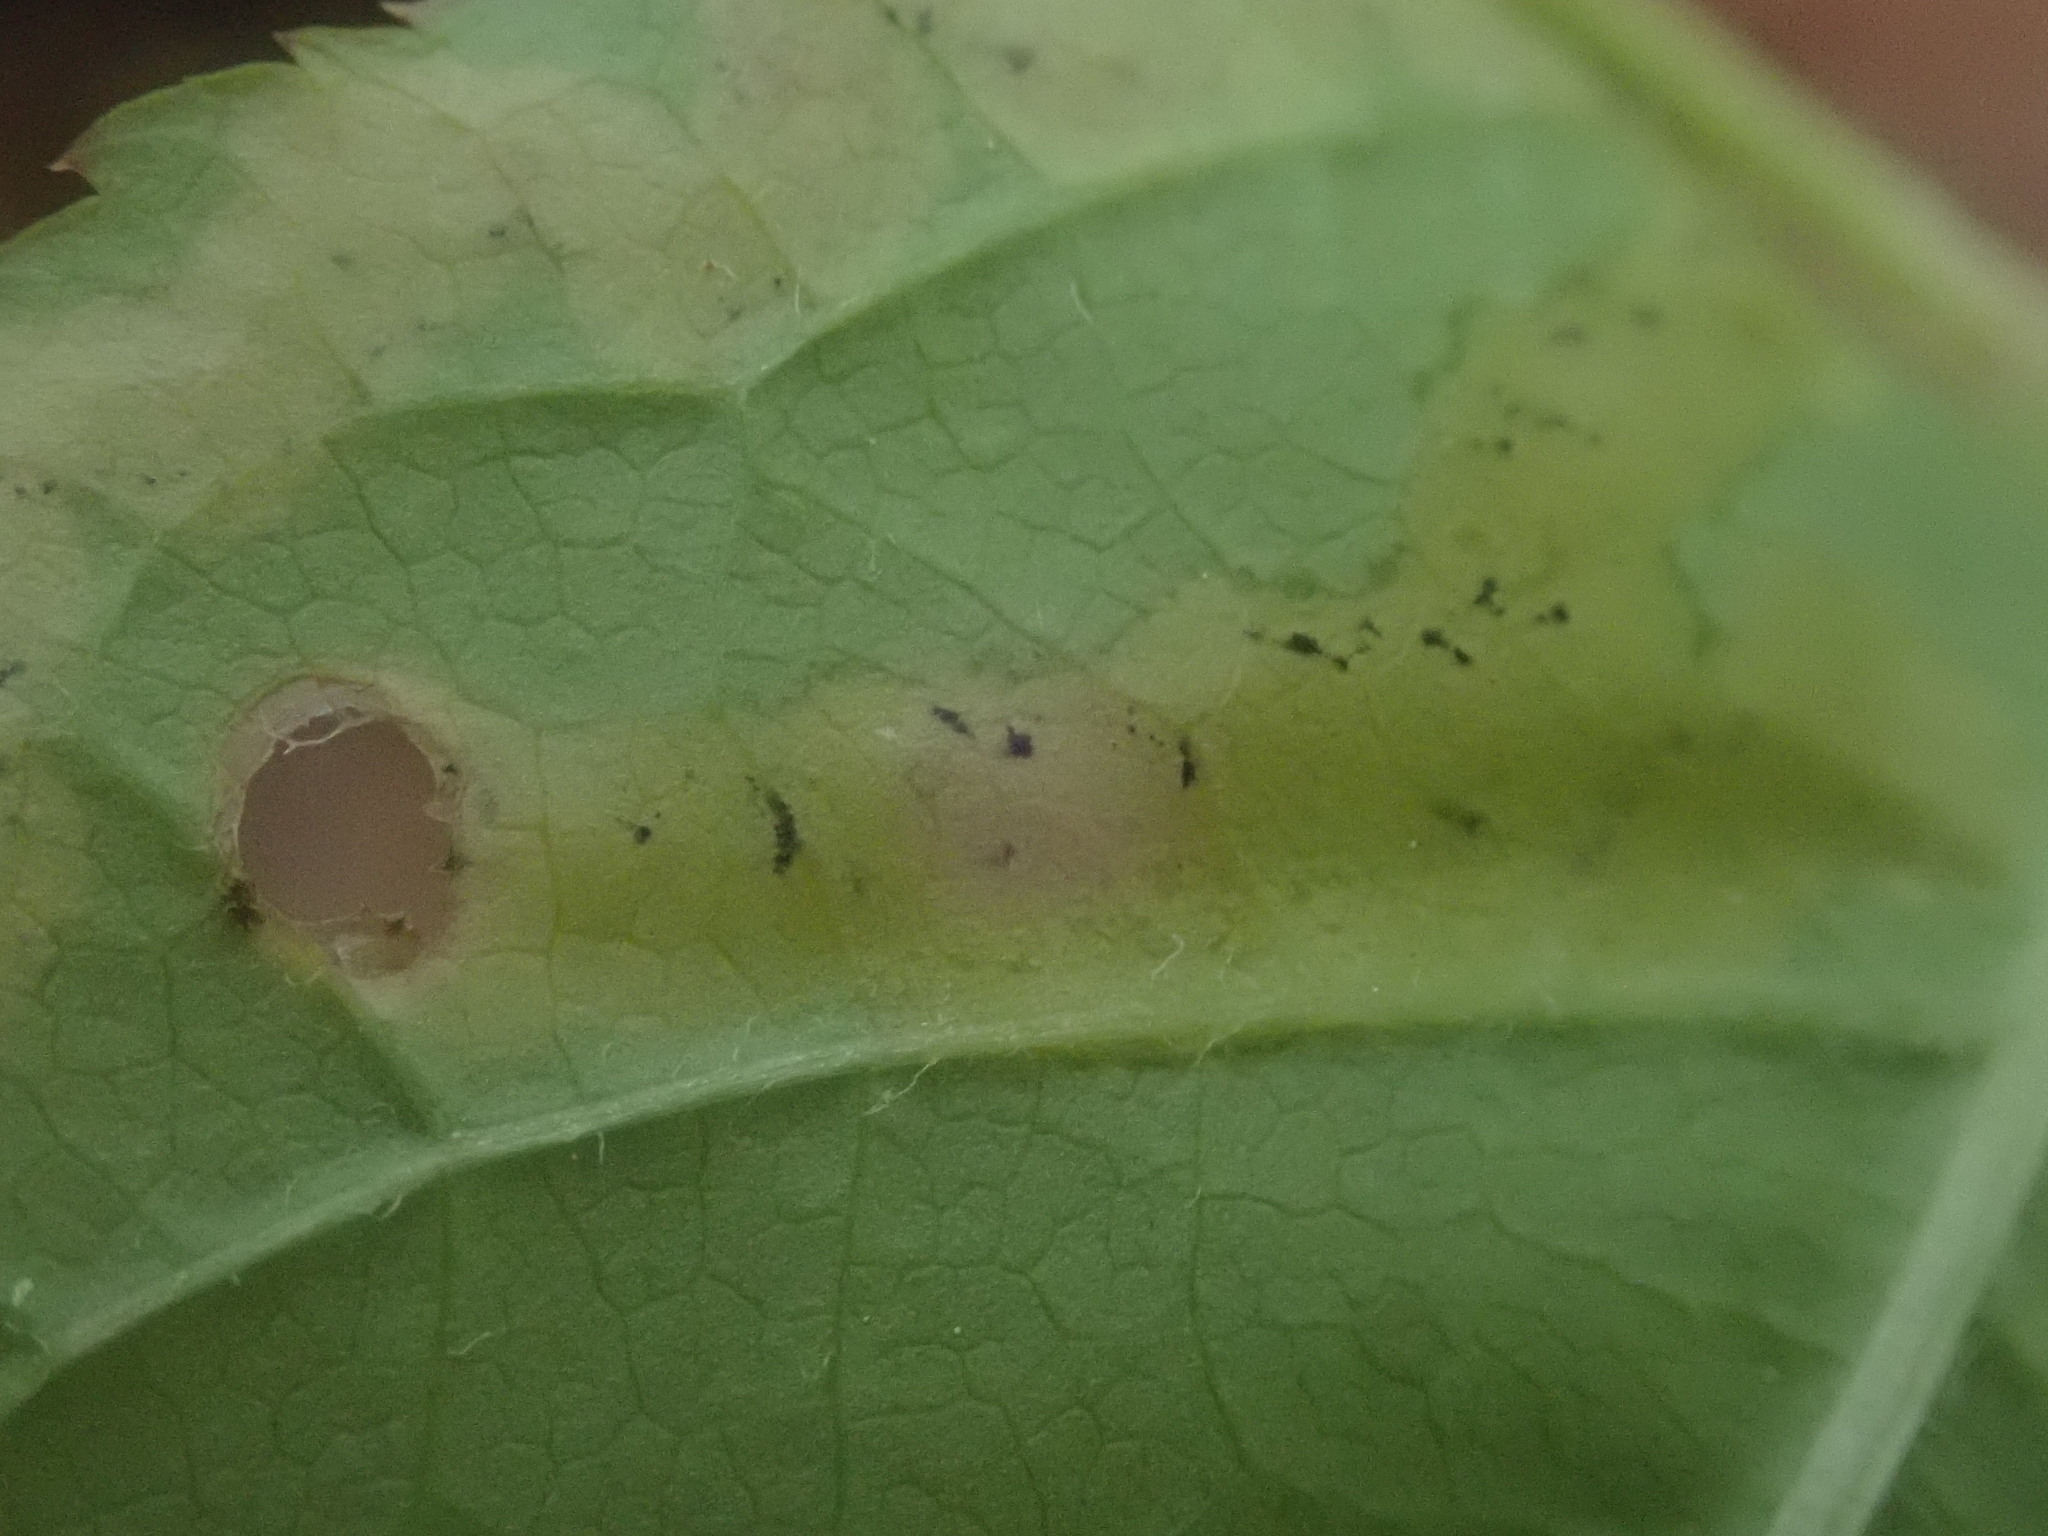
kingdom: Animalia
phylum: Arthropoda
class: Insecta
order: Diptera
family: Agromyzidae
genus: Phytomyza
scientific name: Phytomyza aralivora
